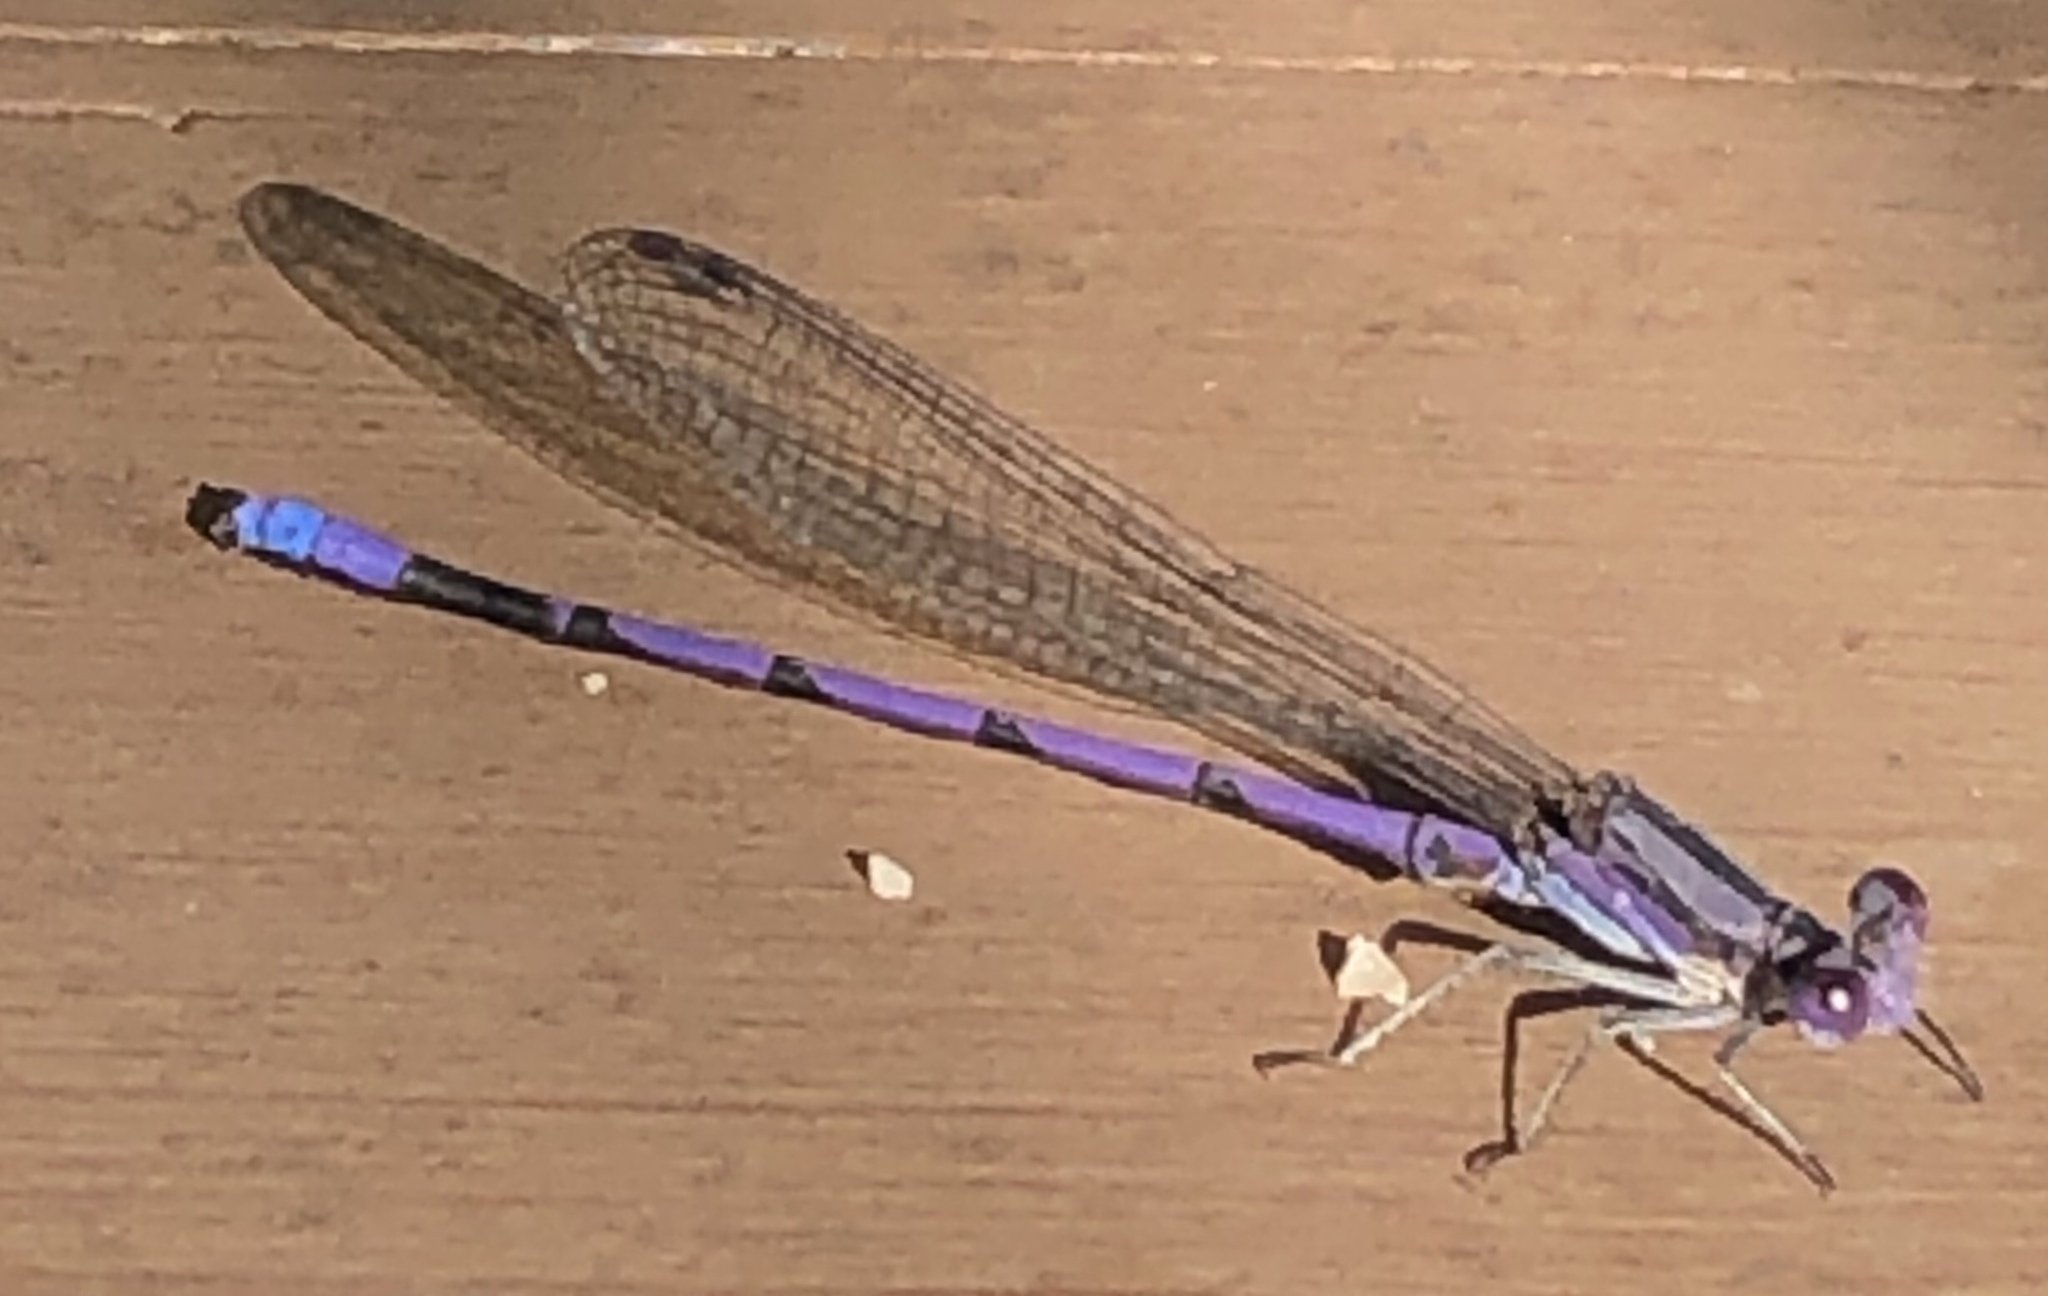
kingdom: Animalia
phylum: Arthropoda
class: Insecta
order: Odonata
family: Coenagrionidae
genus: Argia
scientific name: Argia fumipennis
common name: Variable dancer
